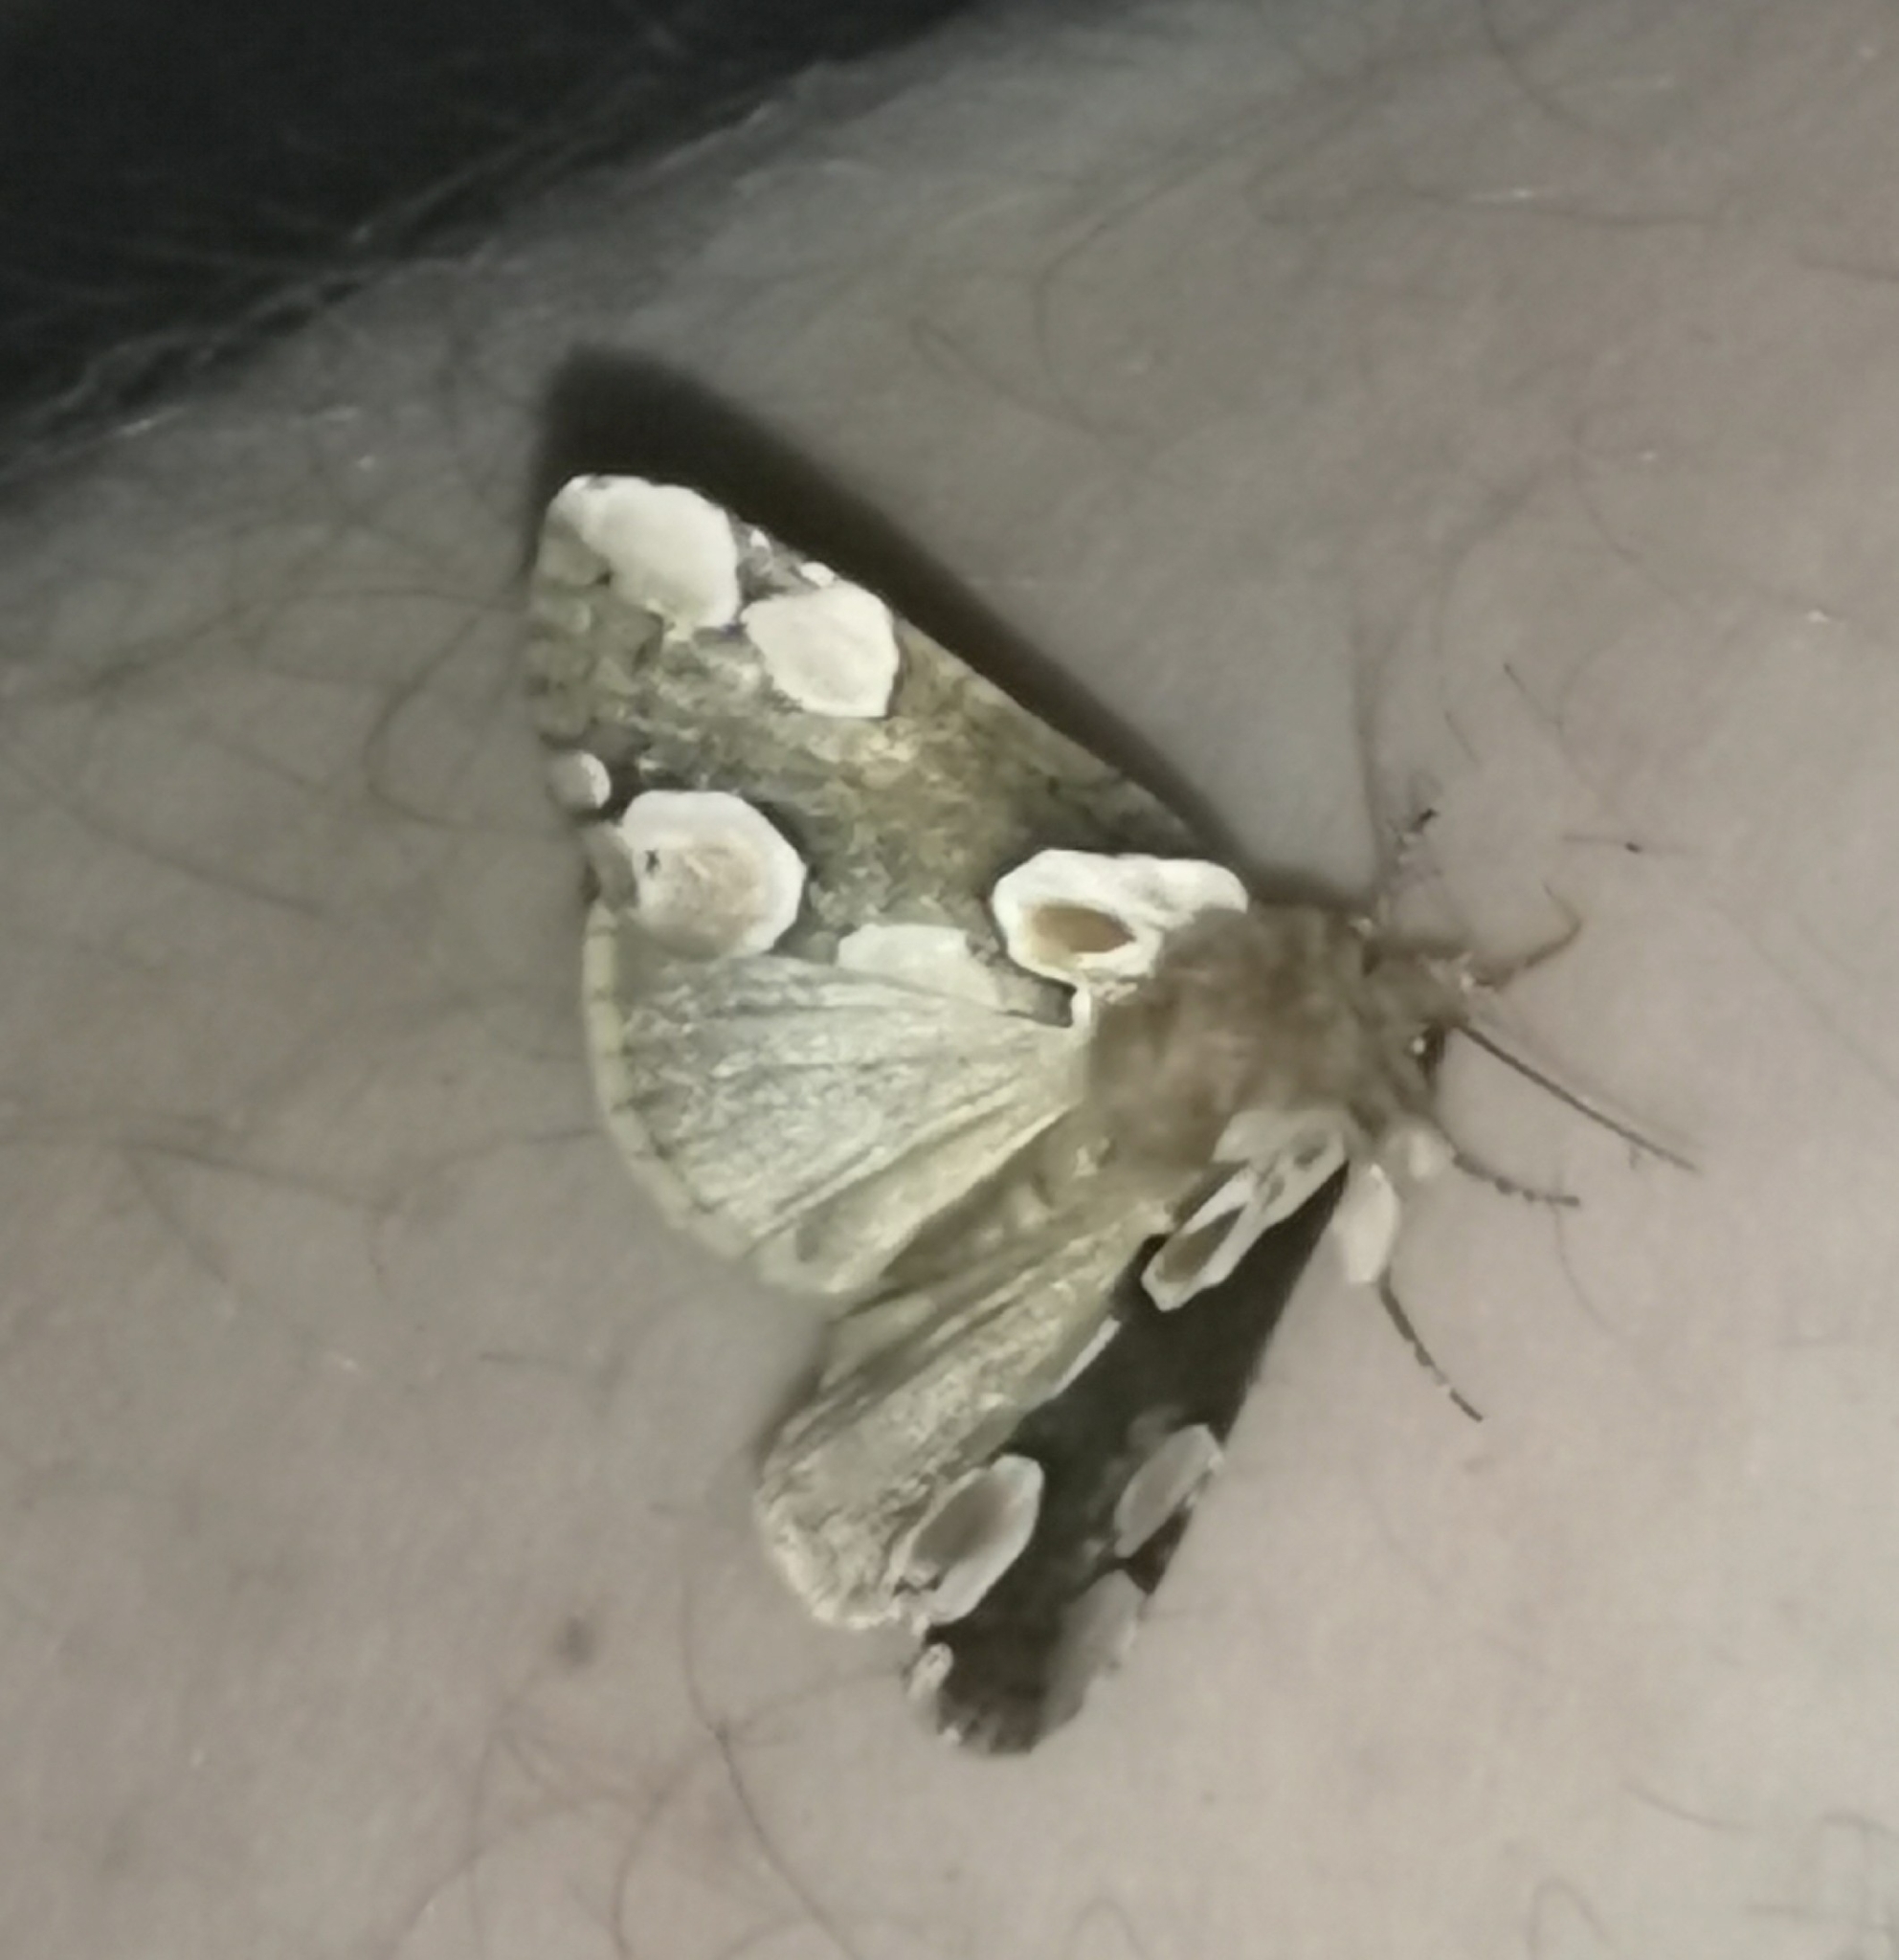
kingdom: Animalia
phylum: Arthropoda
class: Insecta
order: Lepidoptera
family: Drepanidae
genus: Thyatira
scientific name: Thyatira batis
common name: Peach blossom
